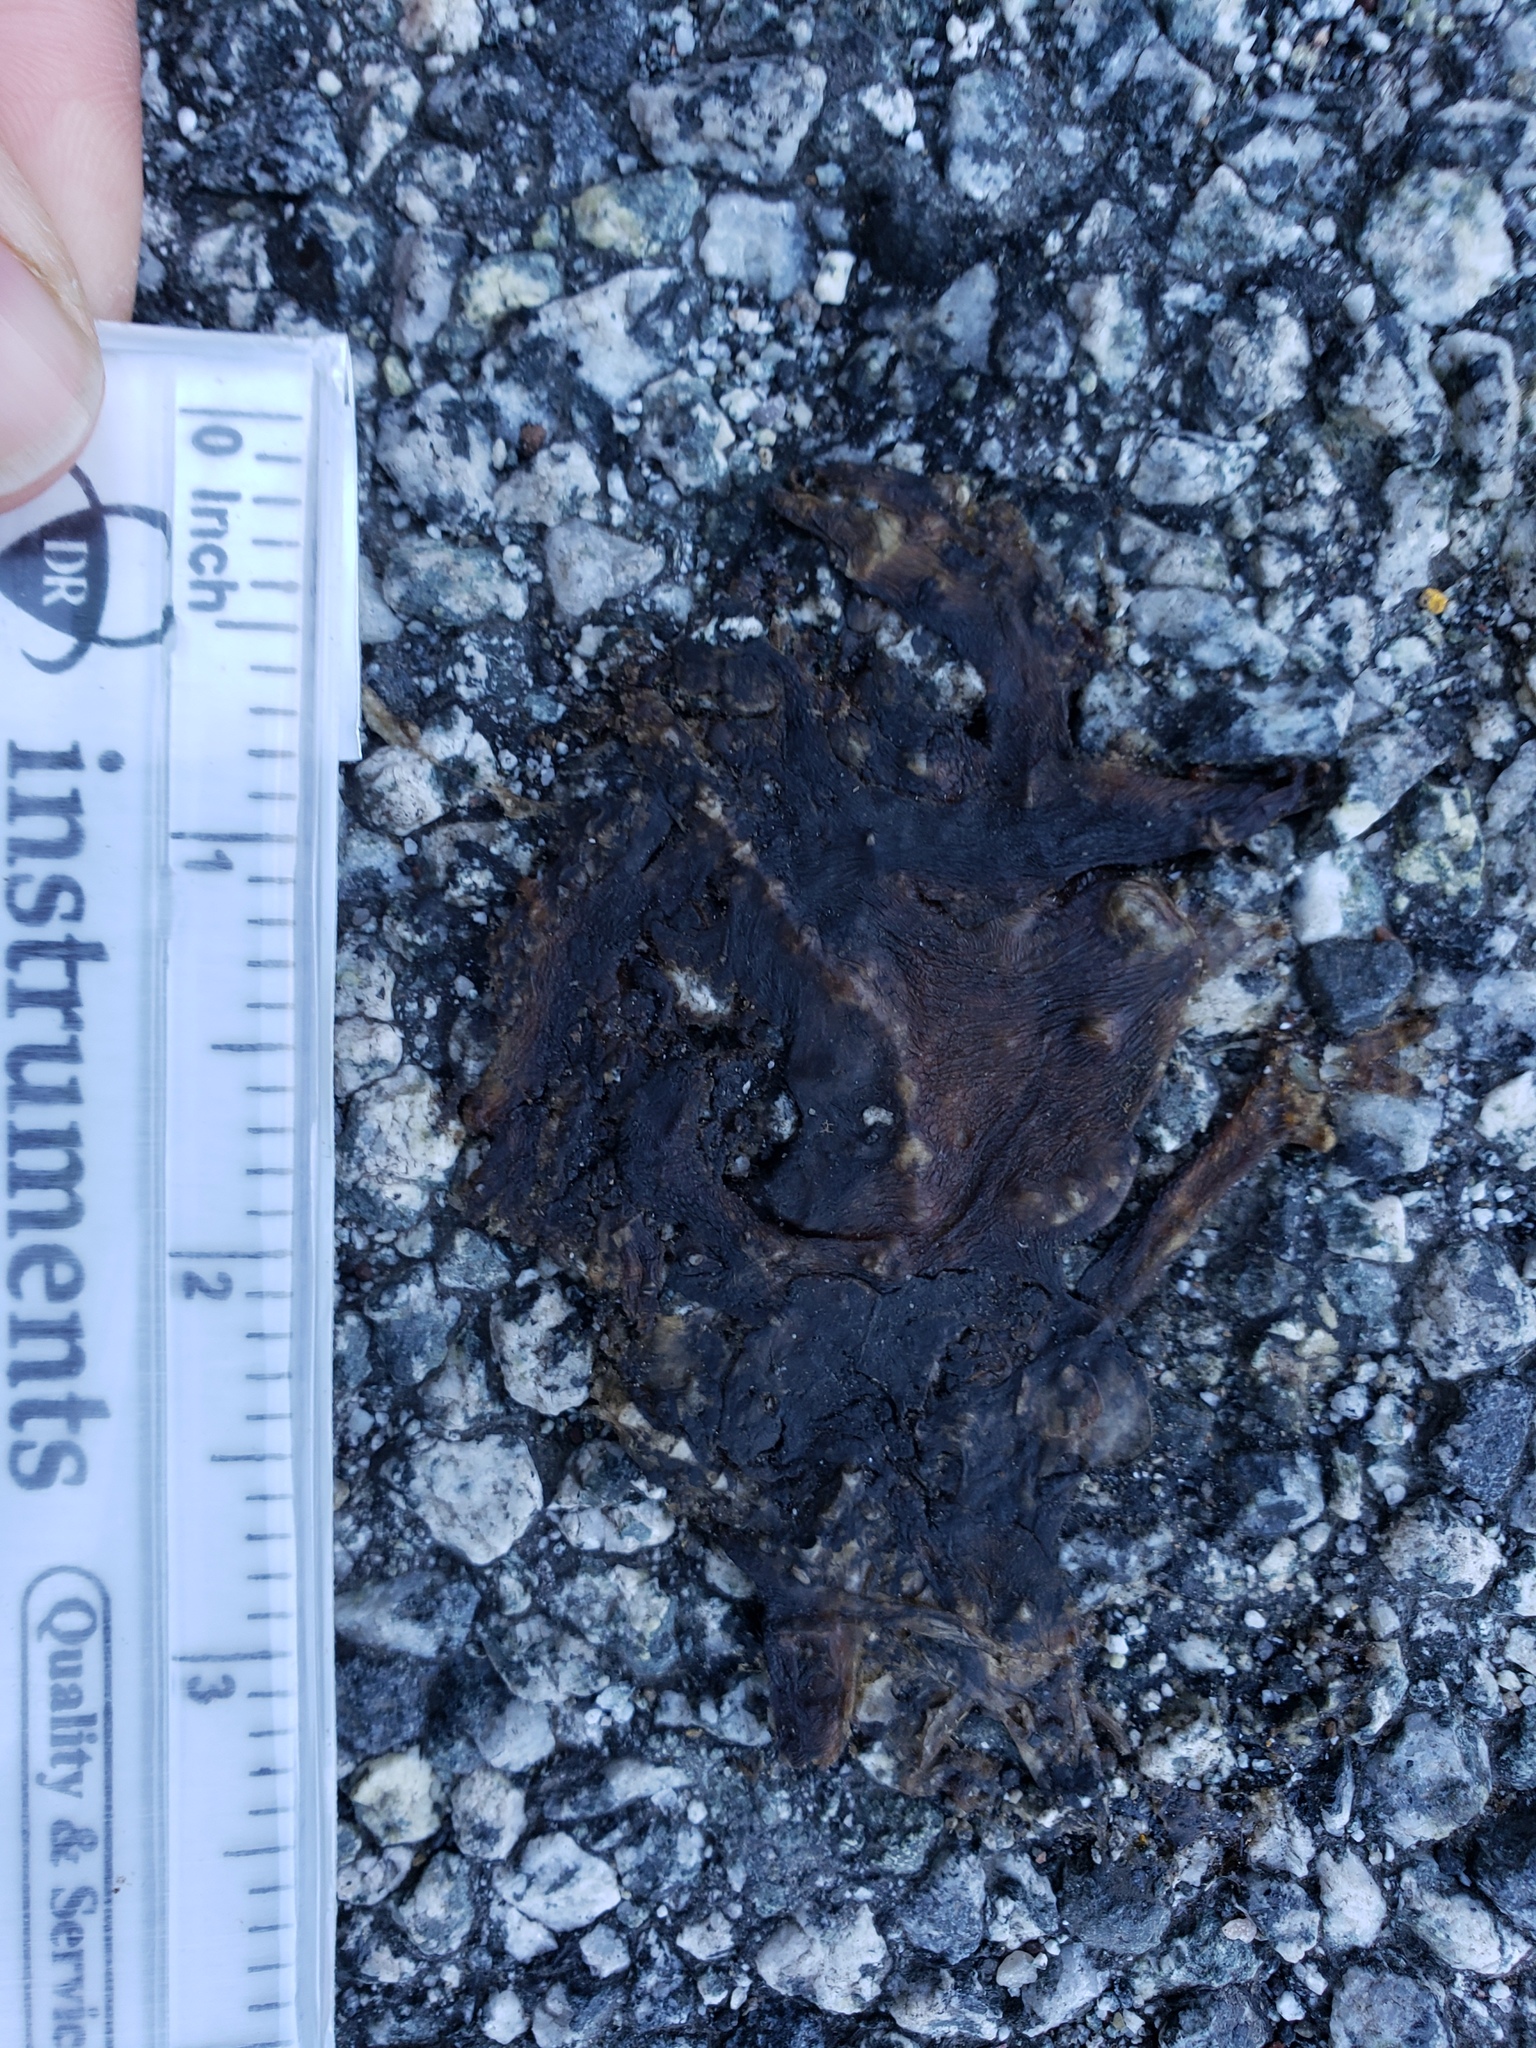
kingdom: Animalia
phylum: Chordata
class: Amphibia
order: Caudata
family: Salamandridae
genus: Taricha
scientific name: Taricha
